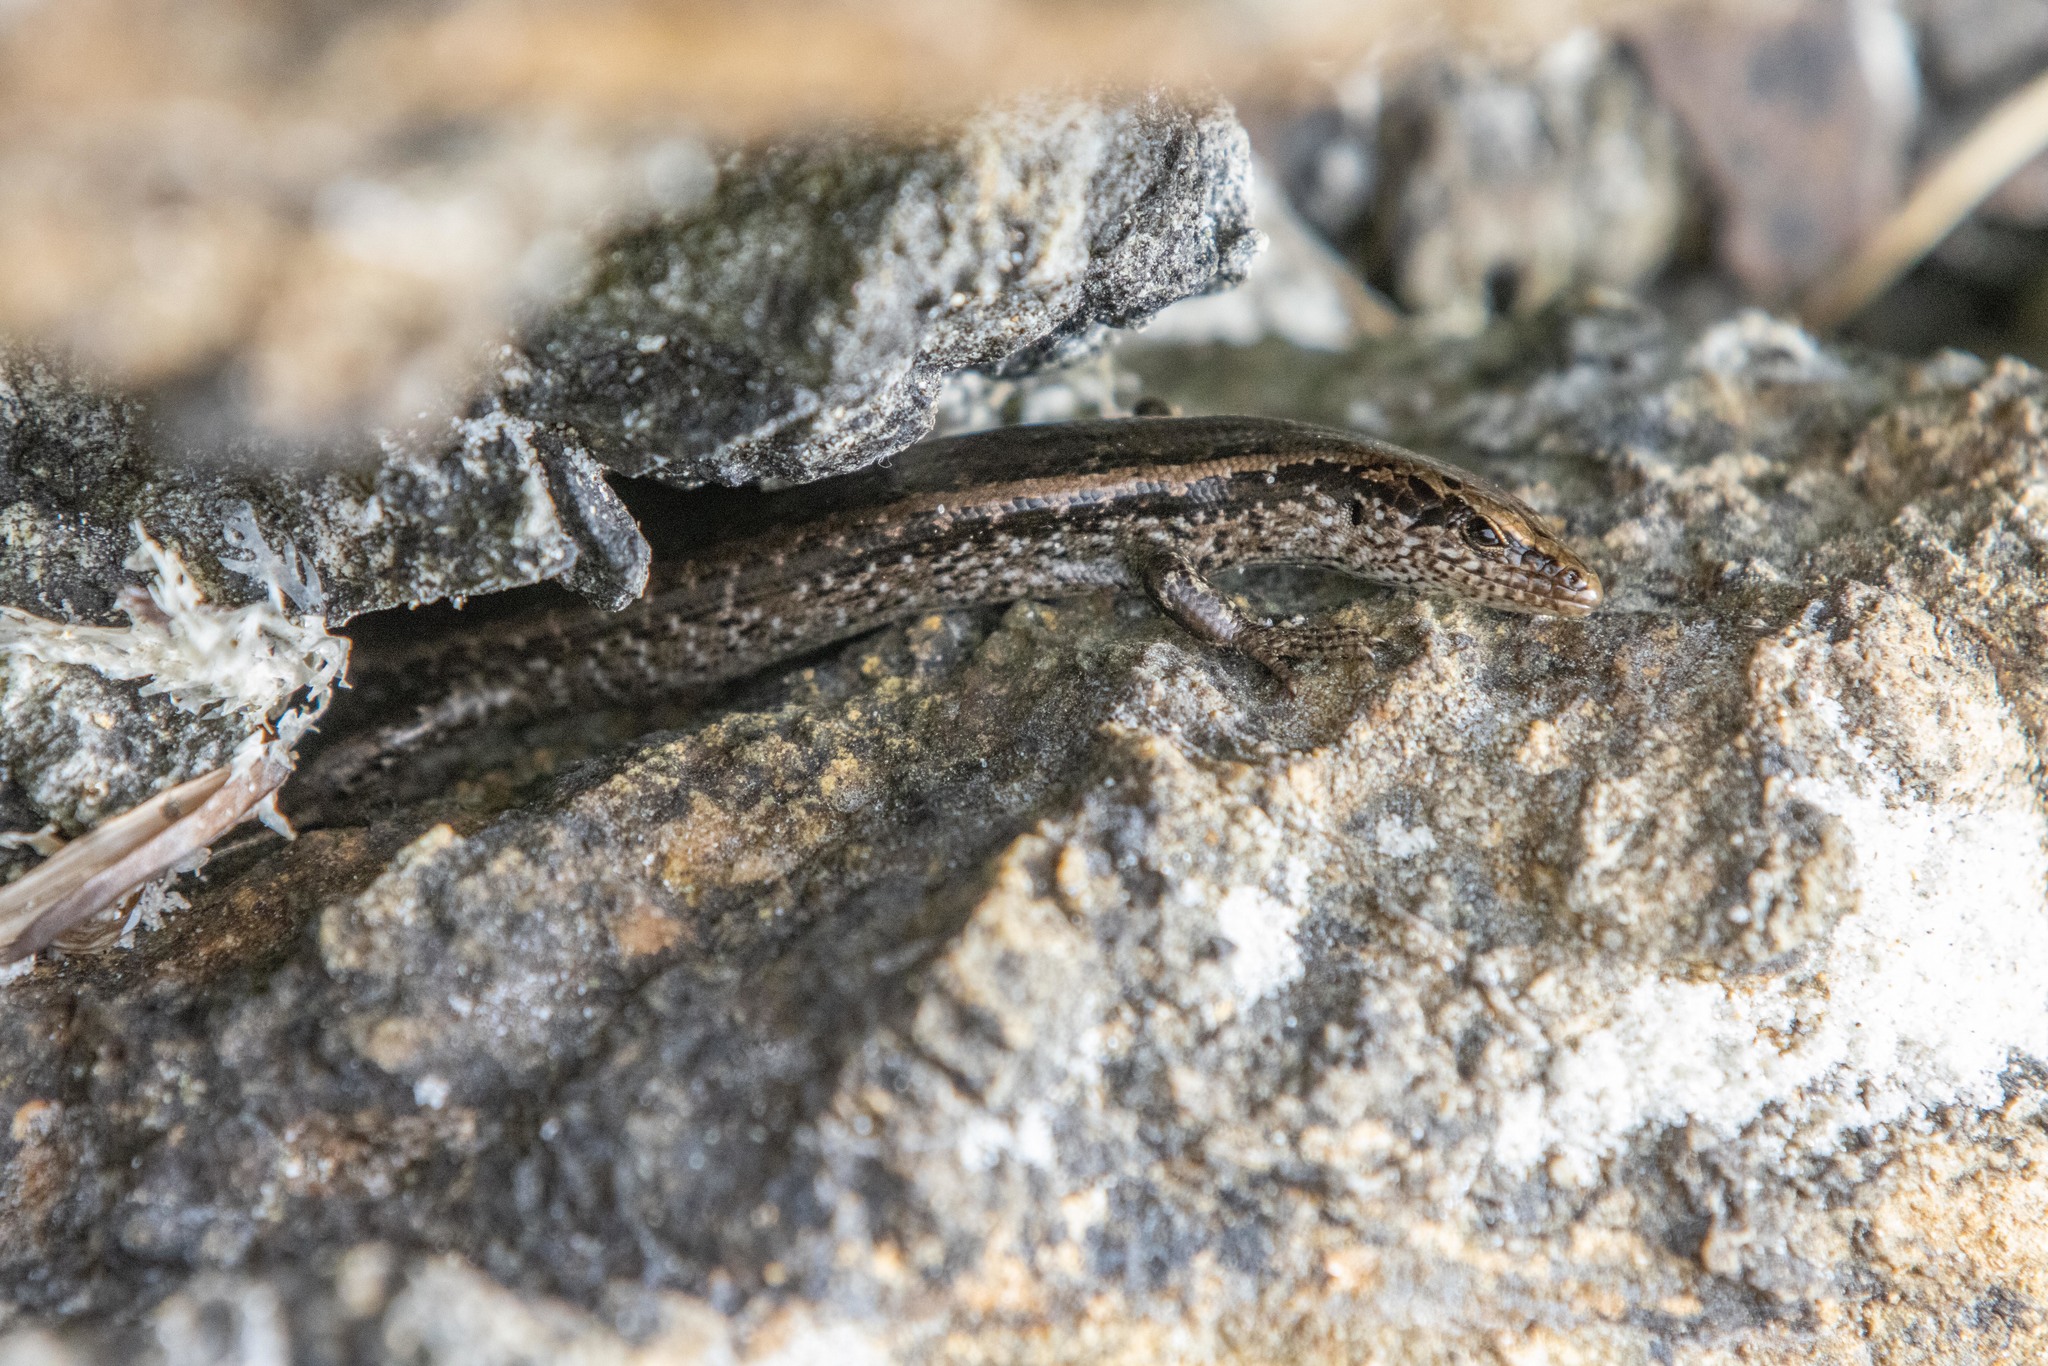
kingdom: Animalia
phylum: Chordata
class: Squamata
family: Scincidae
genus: Oligosoma
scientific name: Oligosoma smithi
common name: Shore skink
